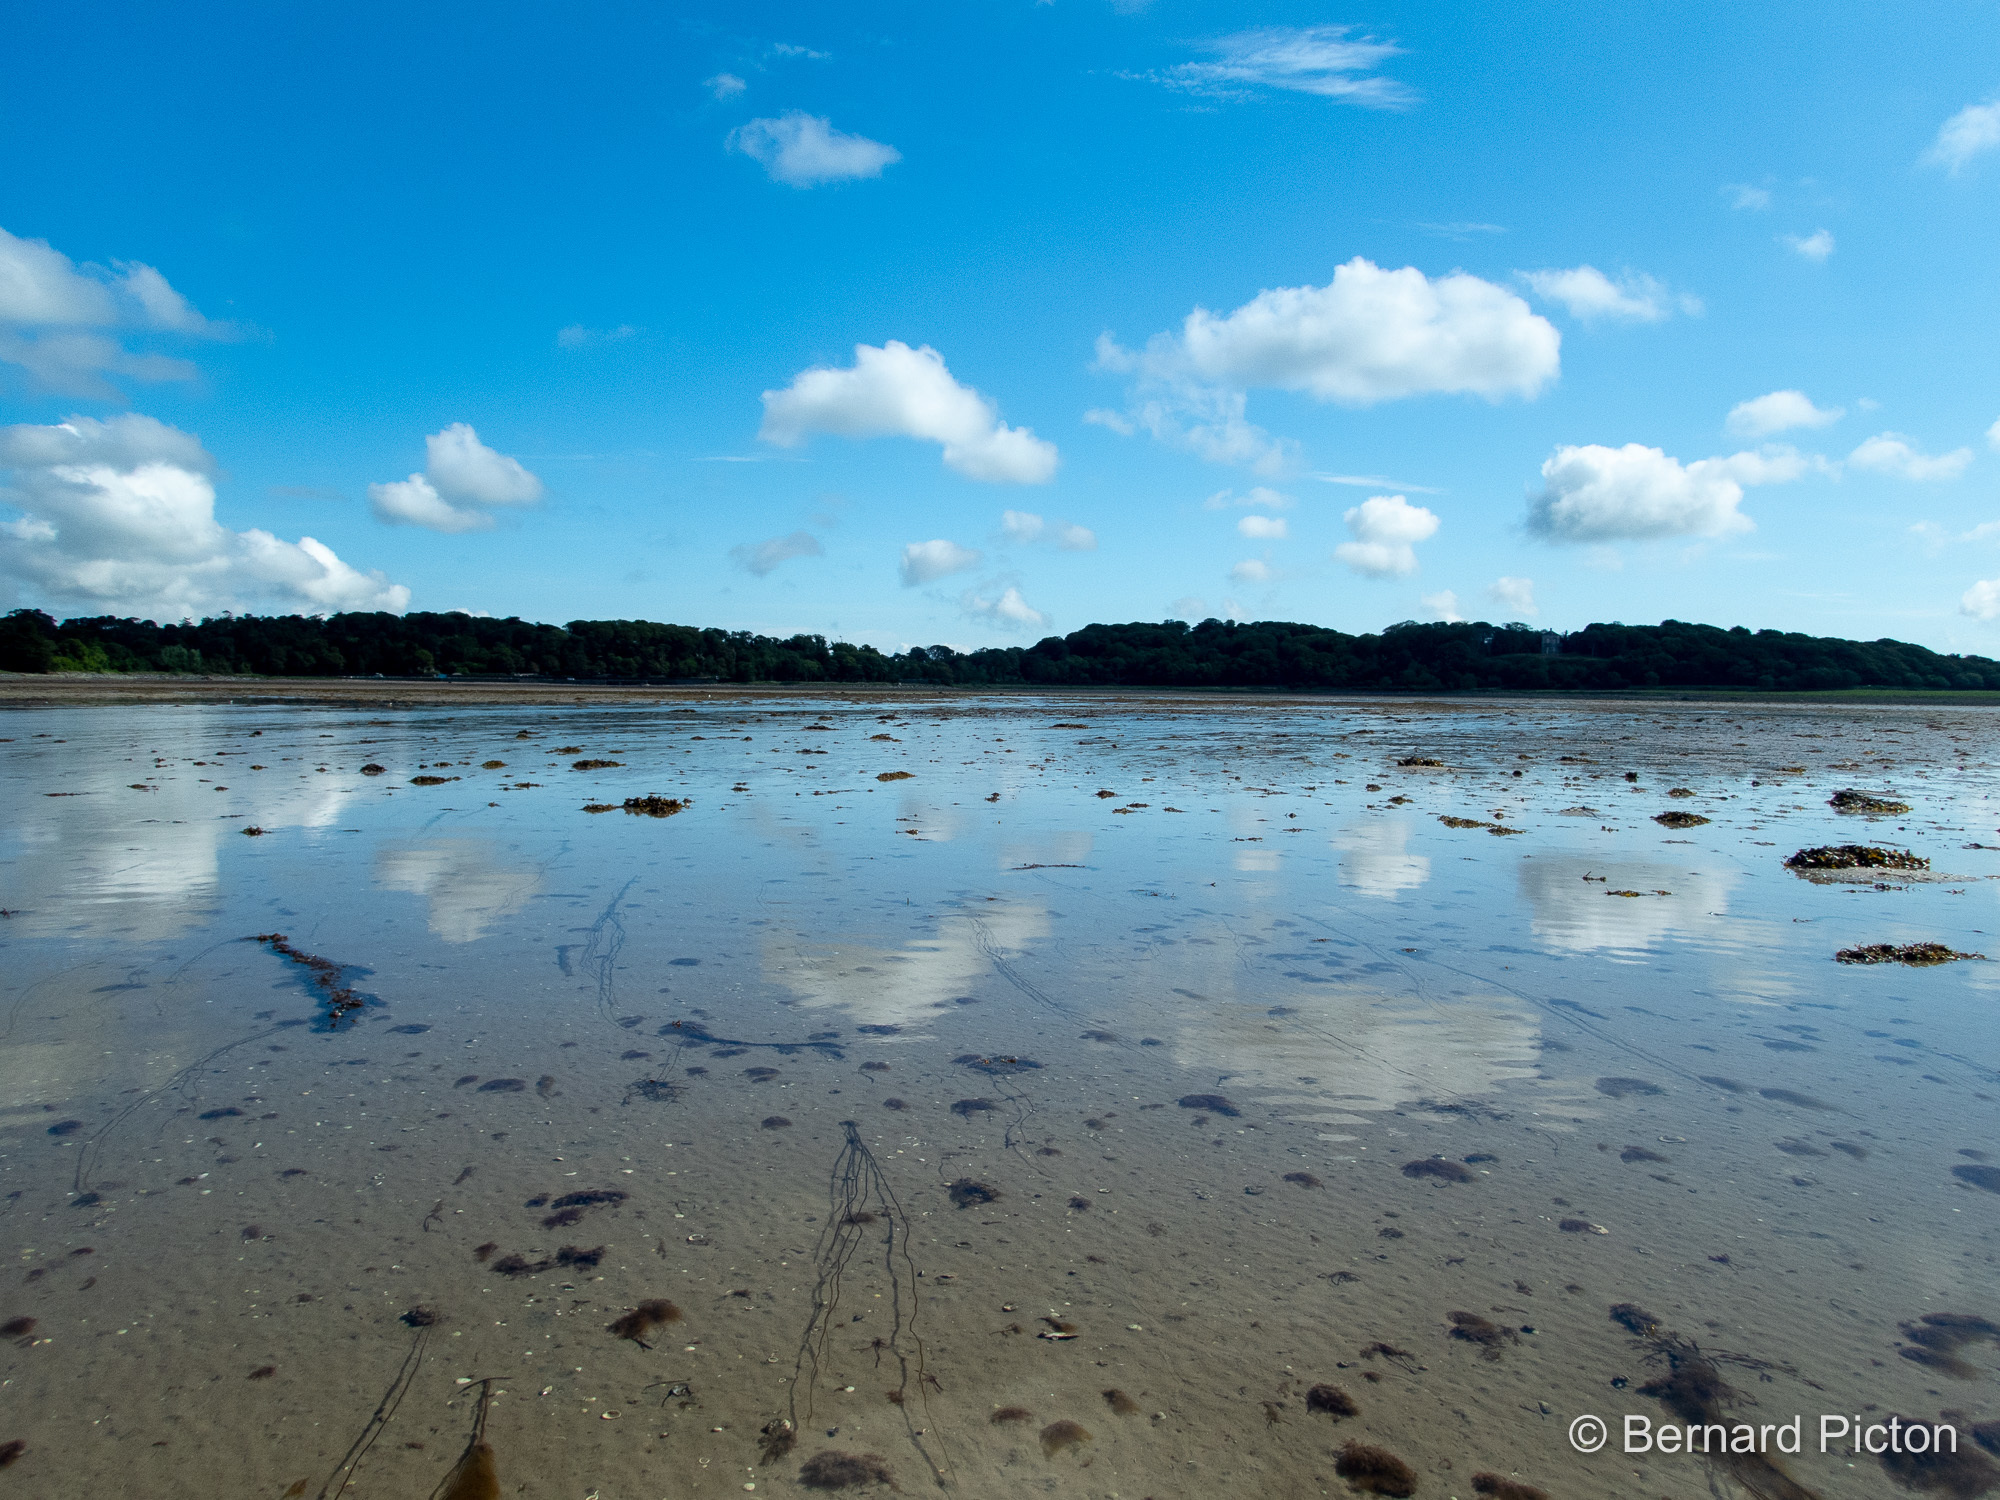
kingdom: Chromista
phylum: Ochrophyta
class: Phaeophyceae
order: Laminariales
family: Chordaceae
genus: Chorda
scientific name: Chorda filum
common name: Mermaid's tresses
